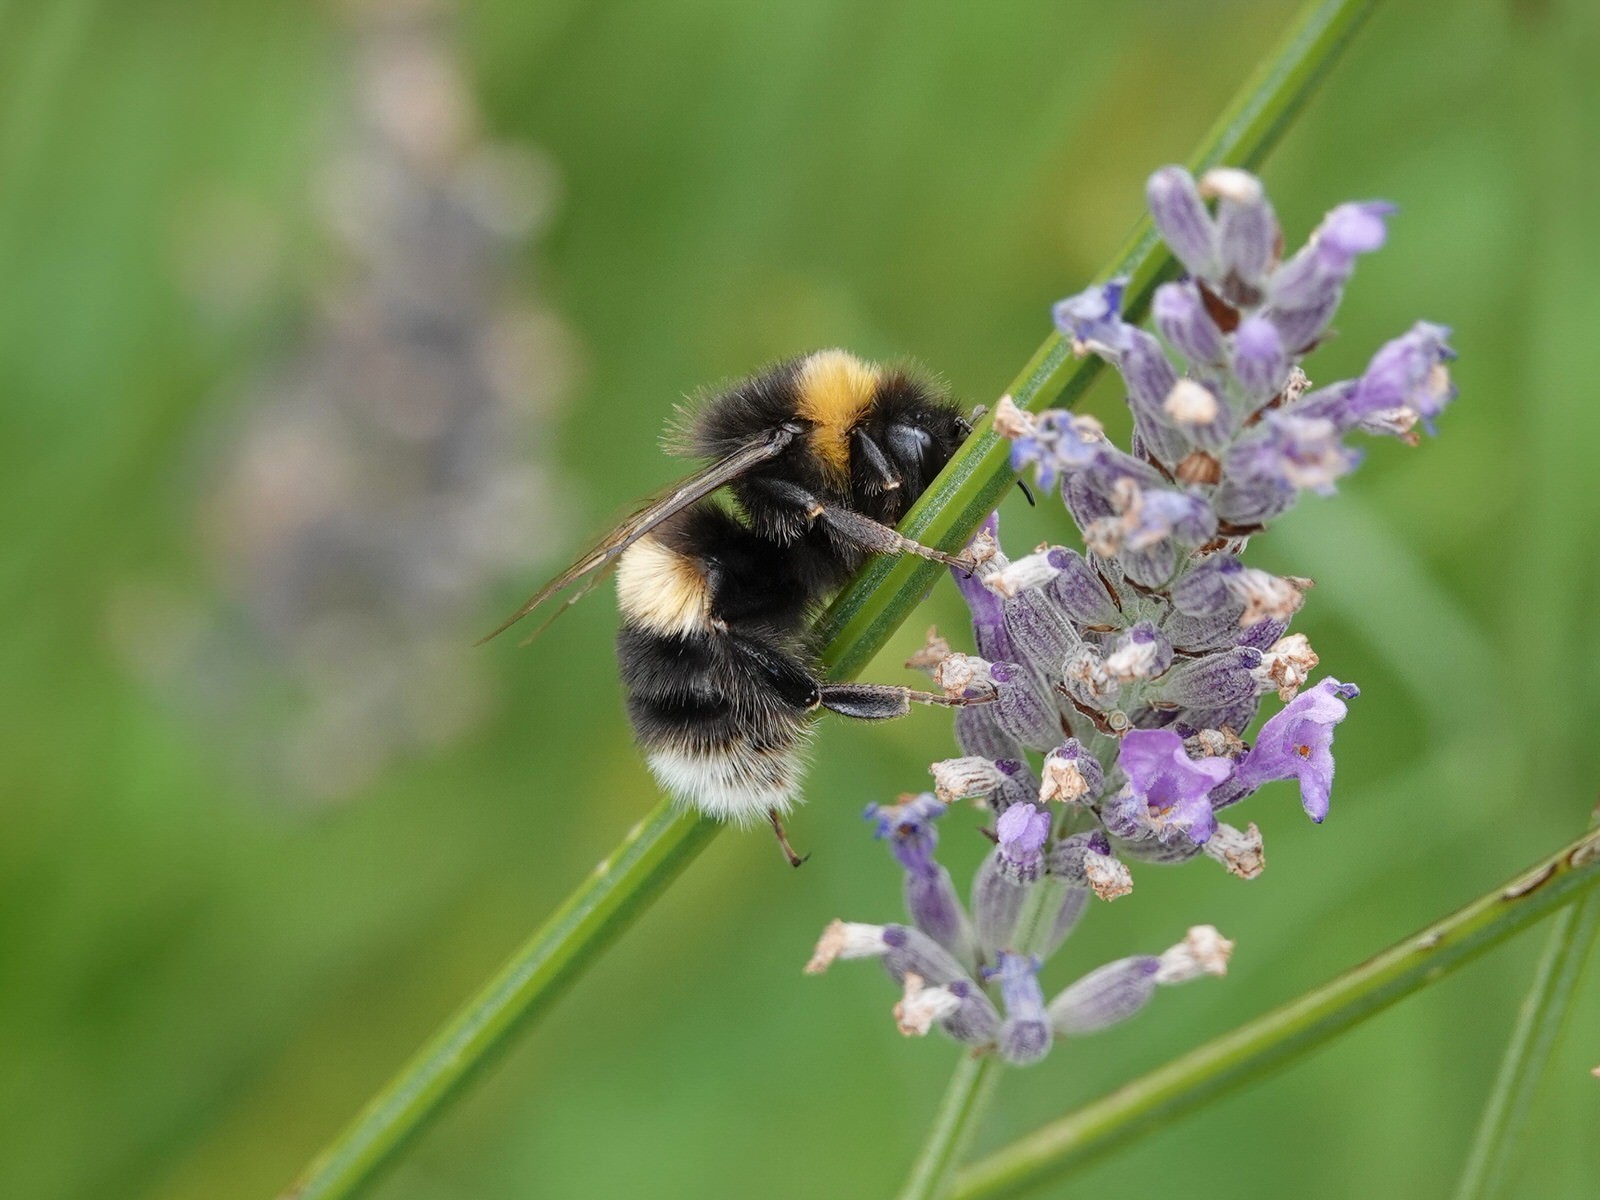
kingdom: Animalia
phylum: Arthropoda
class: Insecta
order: Hymenoptera
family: Apidae
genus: Bombus
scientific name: Bombus terrestris
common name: Buff-tailed bumblebee
